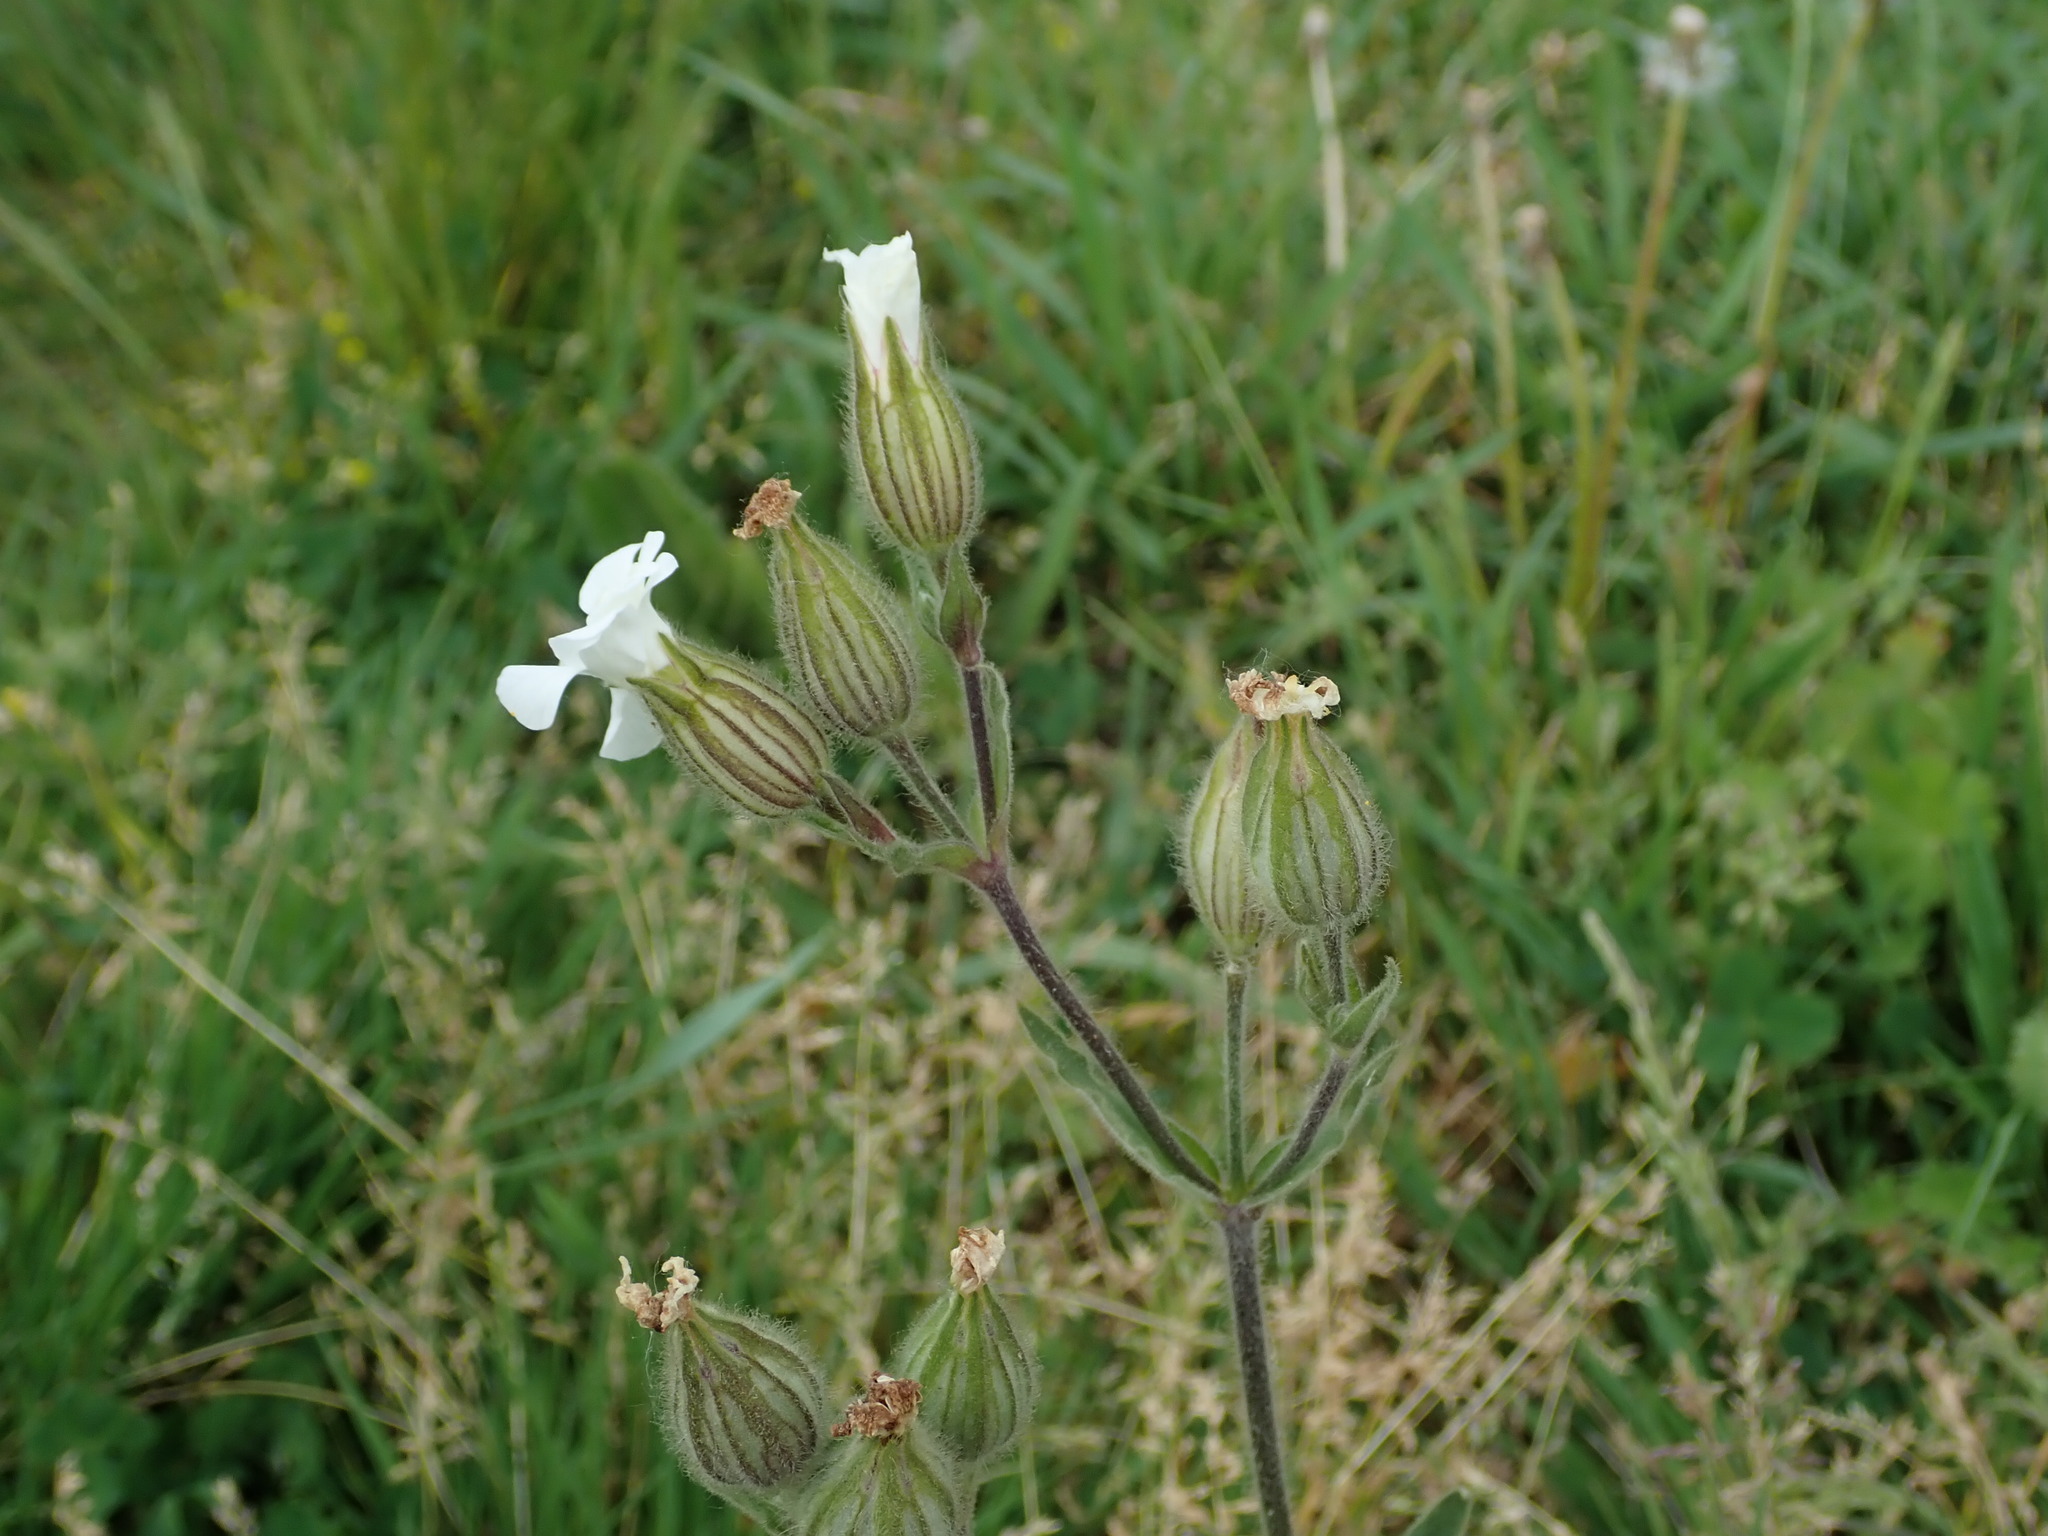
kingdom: Plantae
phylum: Tracheophyta
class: Magnoliopsida
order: Caryophyllales
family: Caryophyllaceae
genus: Silene
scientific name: Silene latifolia
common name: White campion
